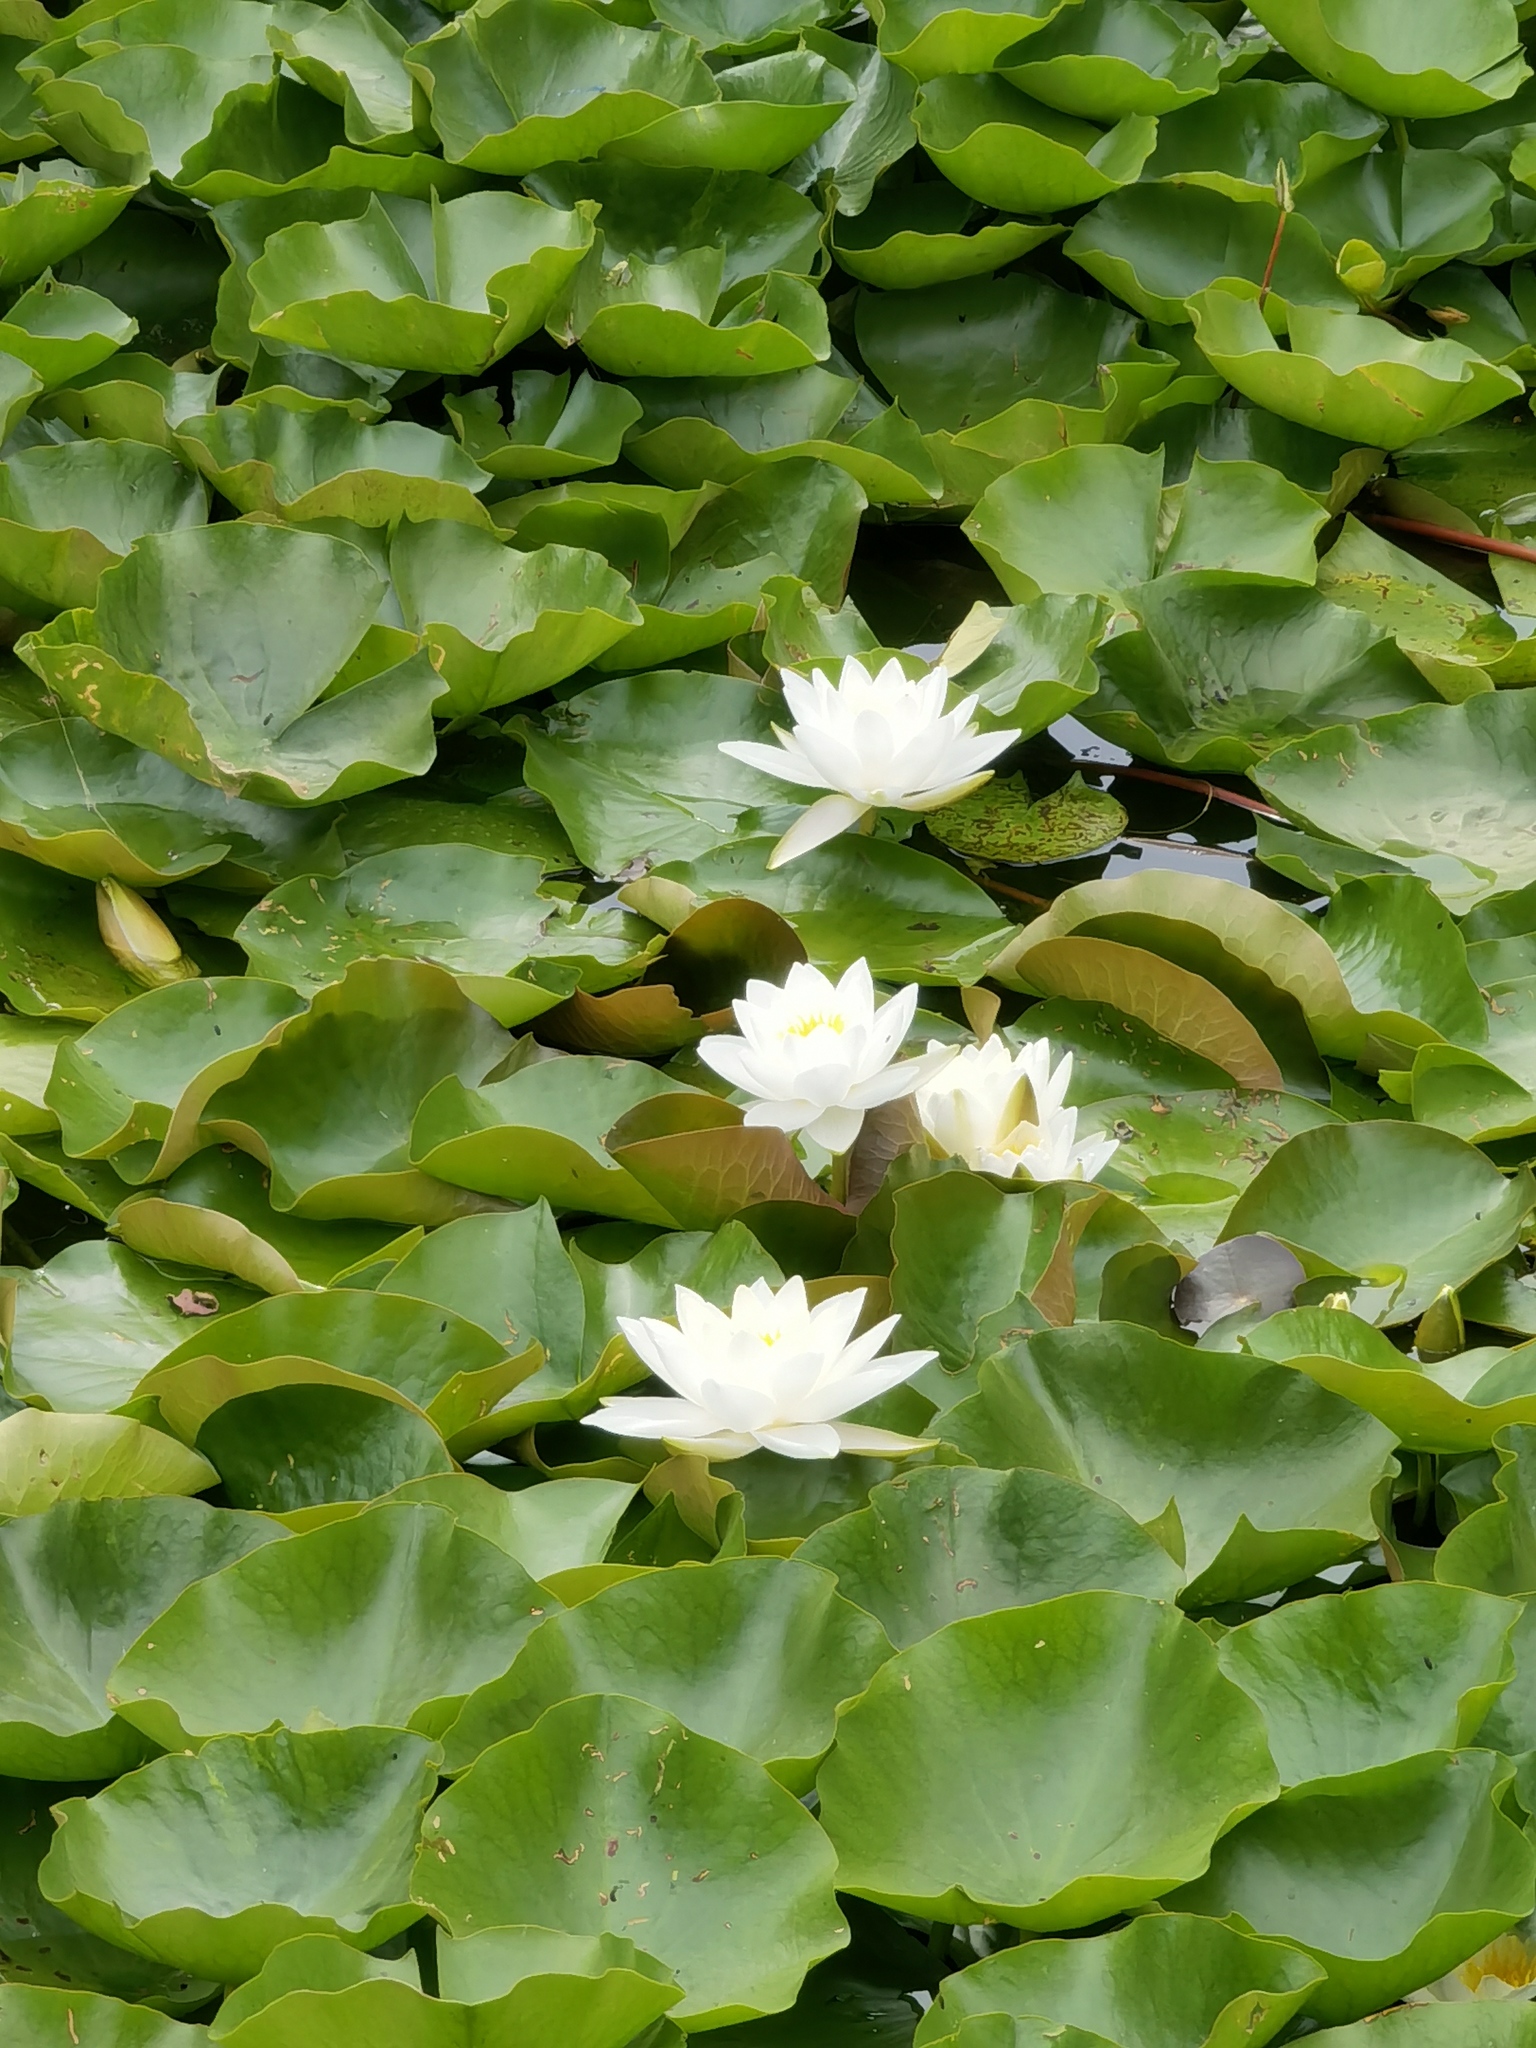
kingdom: Plantae
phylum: Tracheophyta
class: Magnoliopsida
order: Nymphaeales
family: Nymphaeaceae
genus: Nymphaea
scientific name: Nymphaea alba
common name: White water-lily
